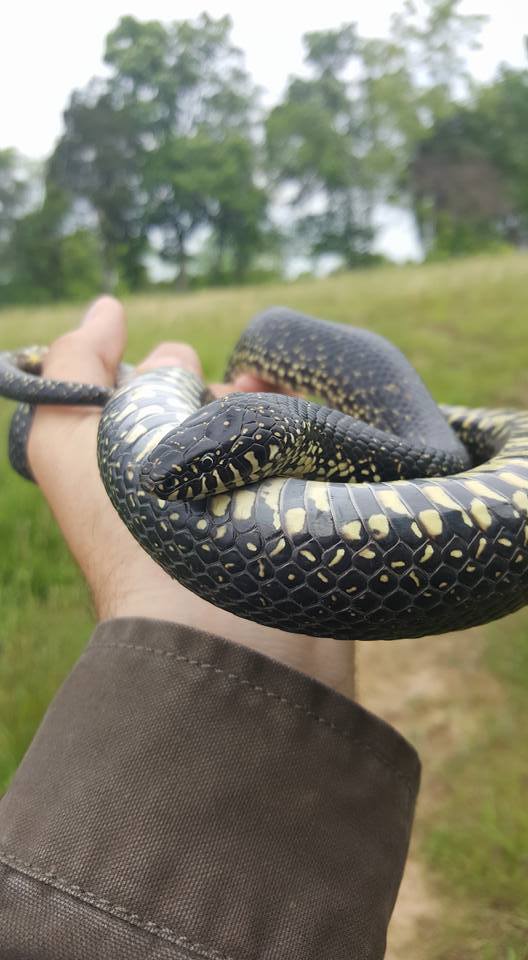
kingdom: Animalia
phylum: Chordata
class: Squamata
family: Colubridae
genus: Lampropeltis
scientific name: Lampropeltis nigra
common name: Black kingsnake
